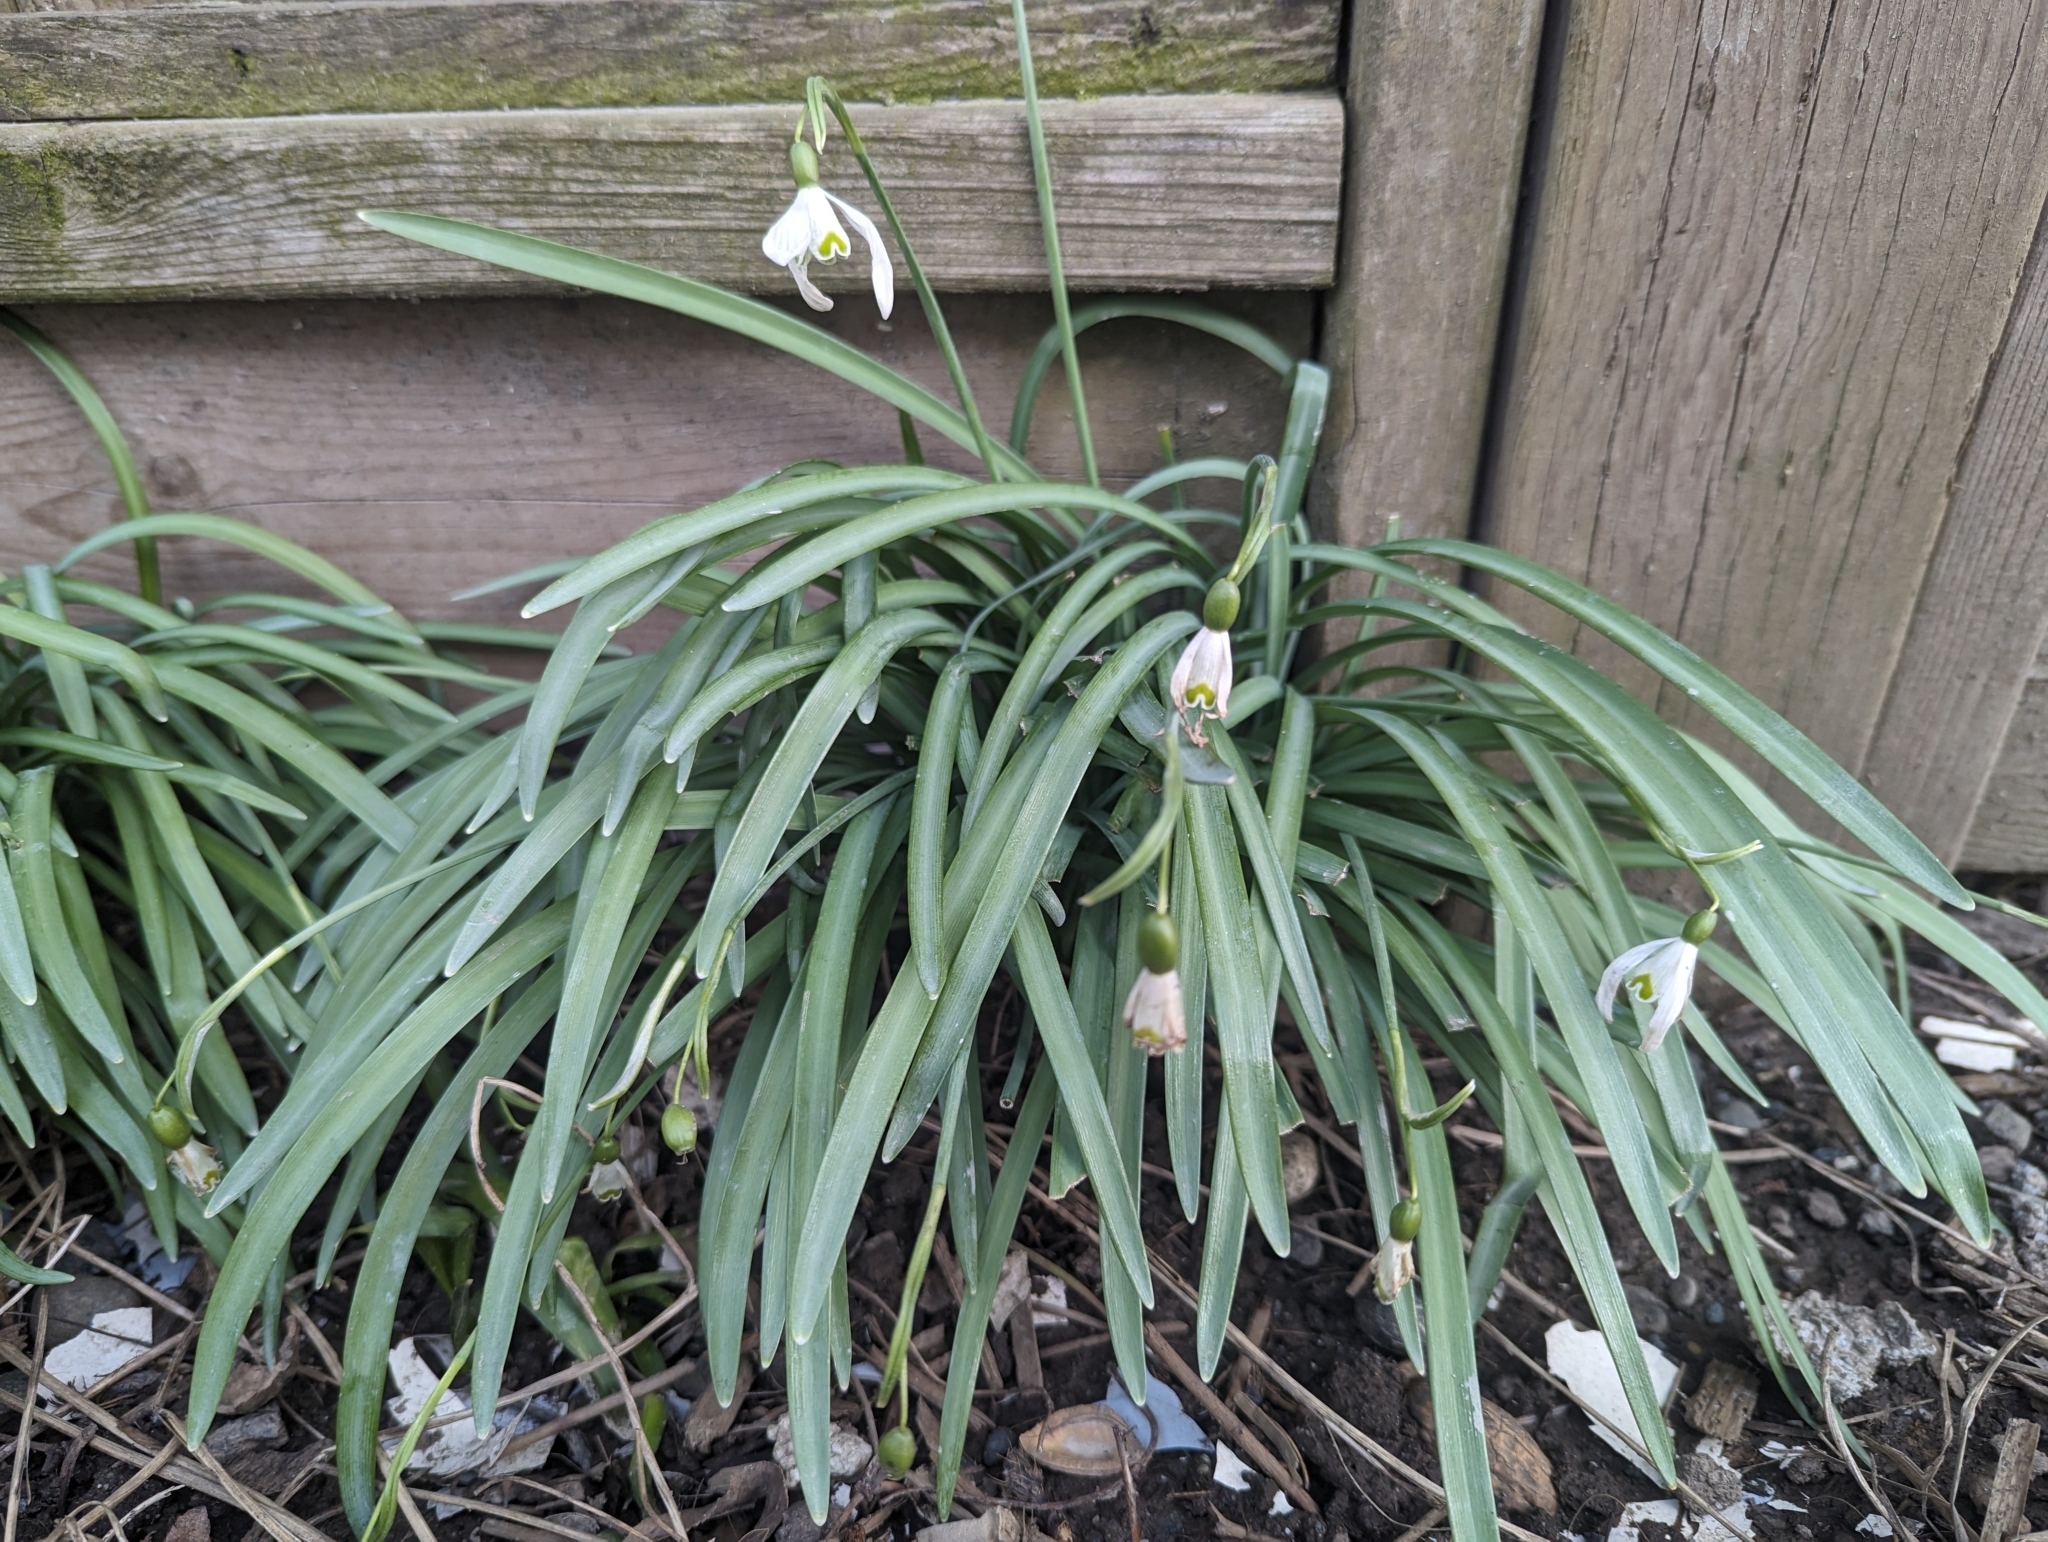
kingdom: Plantae
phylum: Tracheophyta
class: Liliopsida
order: Asparagales
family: Amaryllidaceae
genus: Galanthus
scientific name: Galanthus nivalis
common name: Snowdrop
